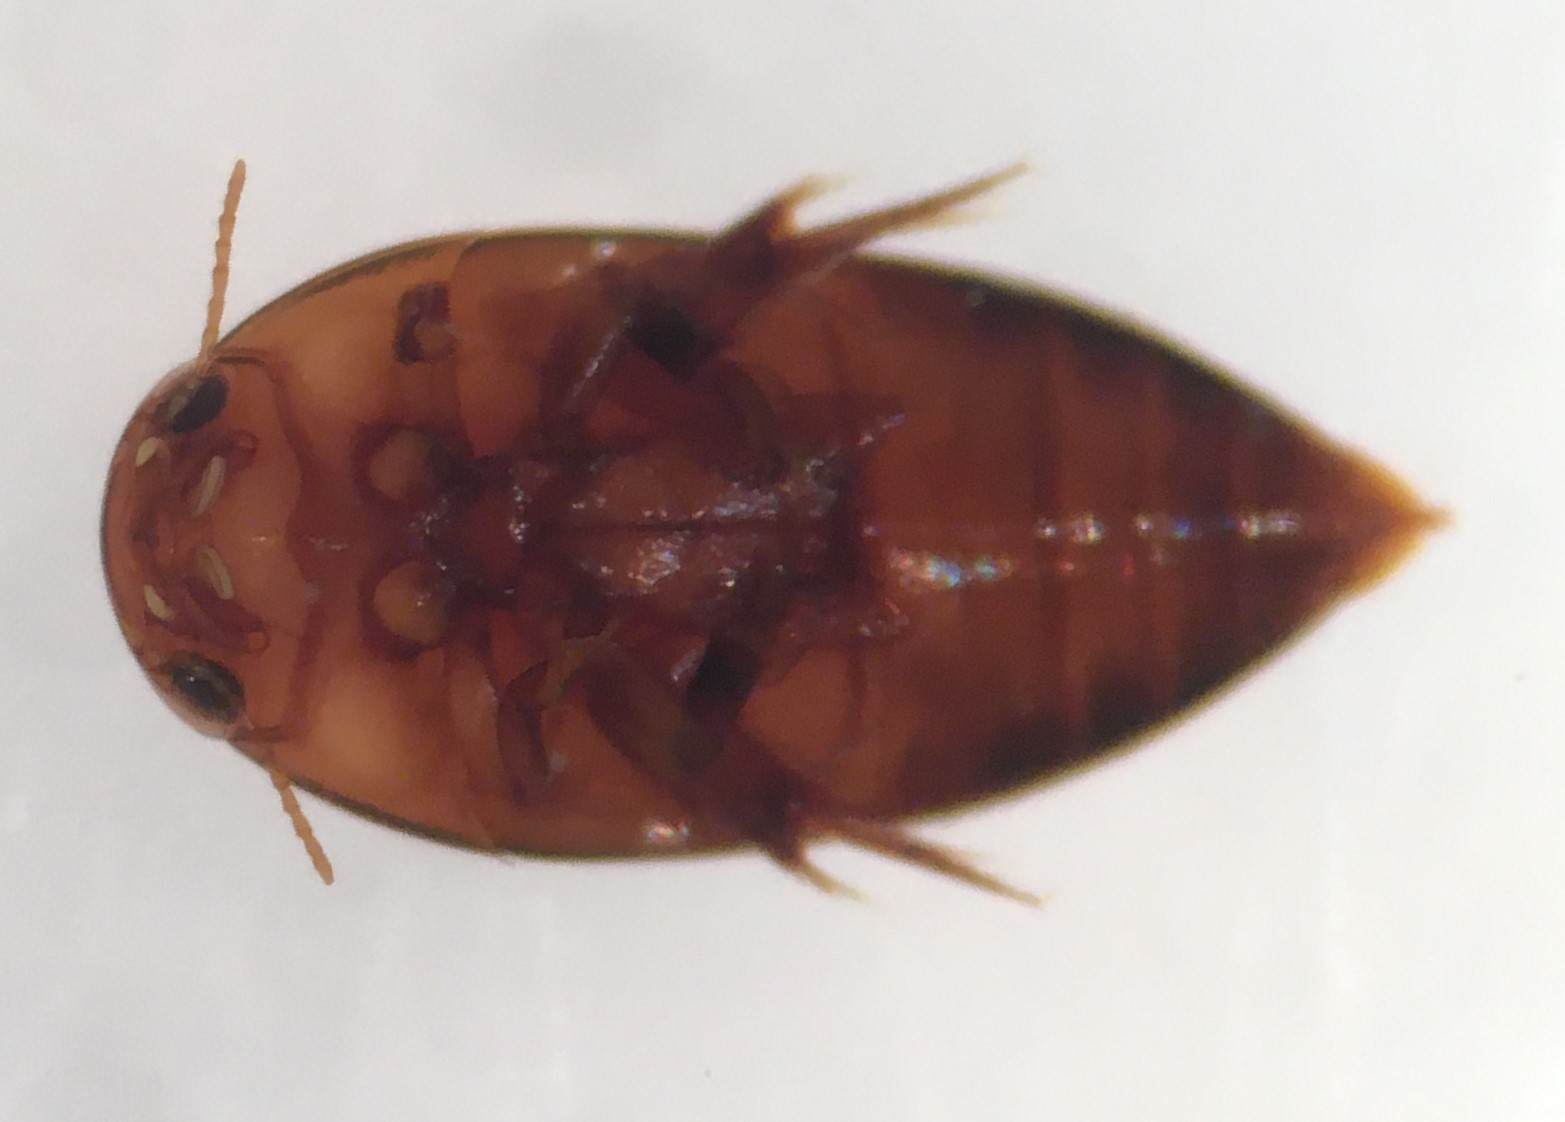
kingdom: Animalia
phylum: Arthropoda
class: Insecta
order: Coleoptera
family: Noteridae
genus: Hydrocanthus
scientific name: Hydrocanthus oblongus
